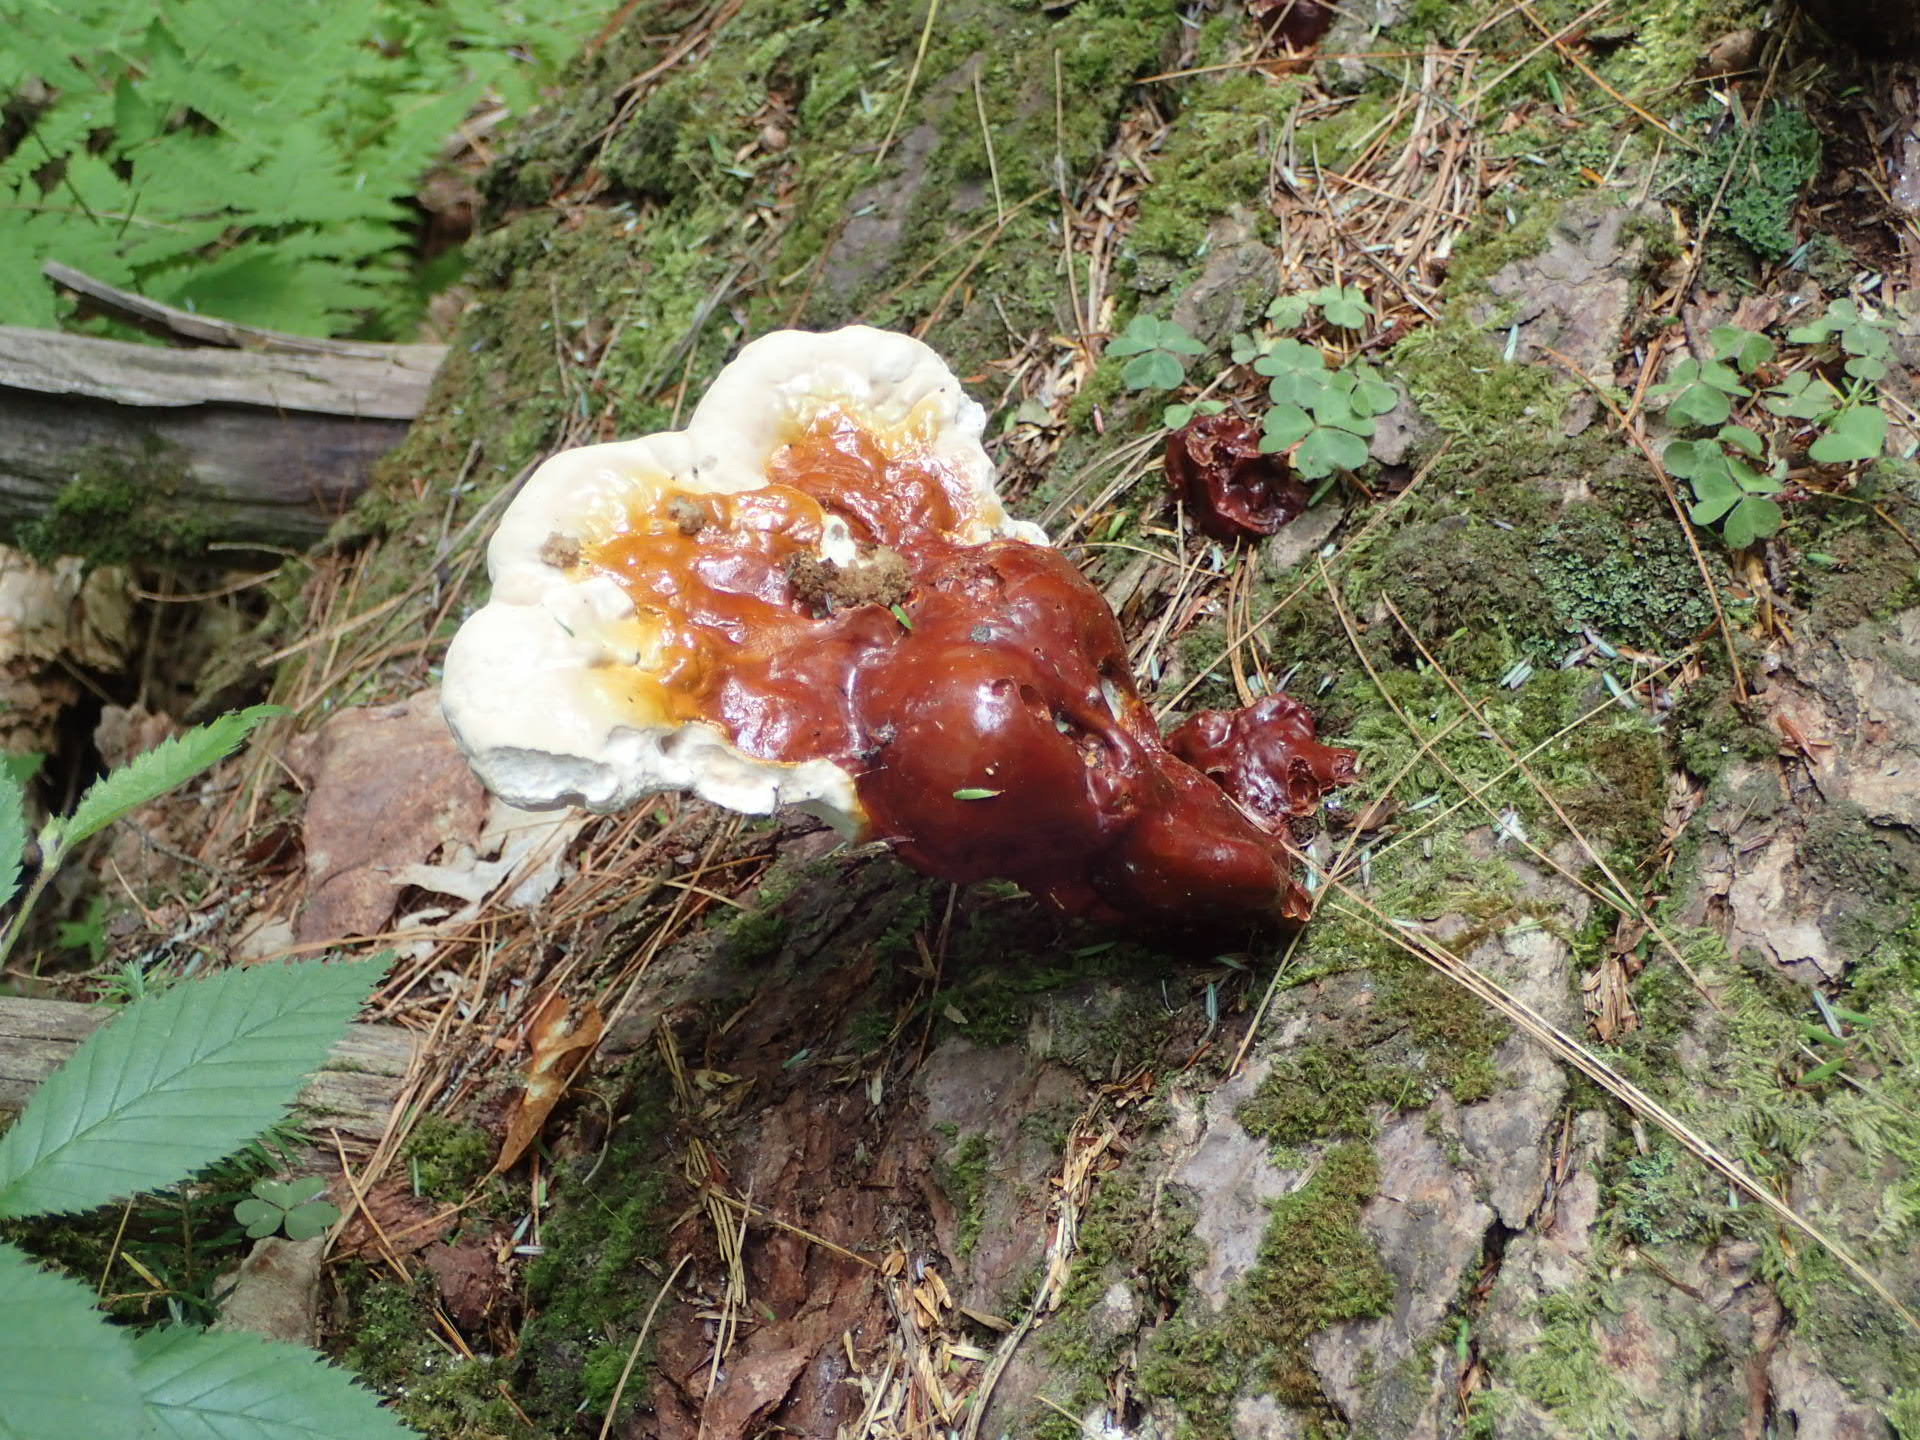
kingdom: Fungi
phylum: Basidiomycota
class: Agaricomycetes
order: Polyporales
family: Polyporaceae
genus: Ganoderma
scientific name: Ganoderma tsugae
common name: Hemlock varnish shelf
